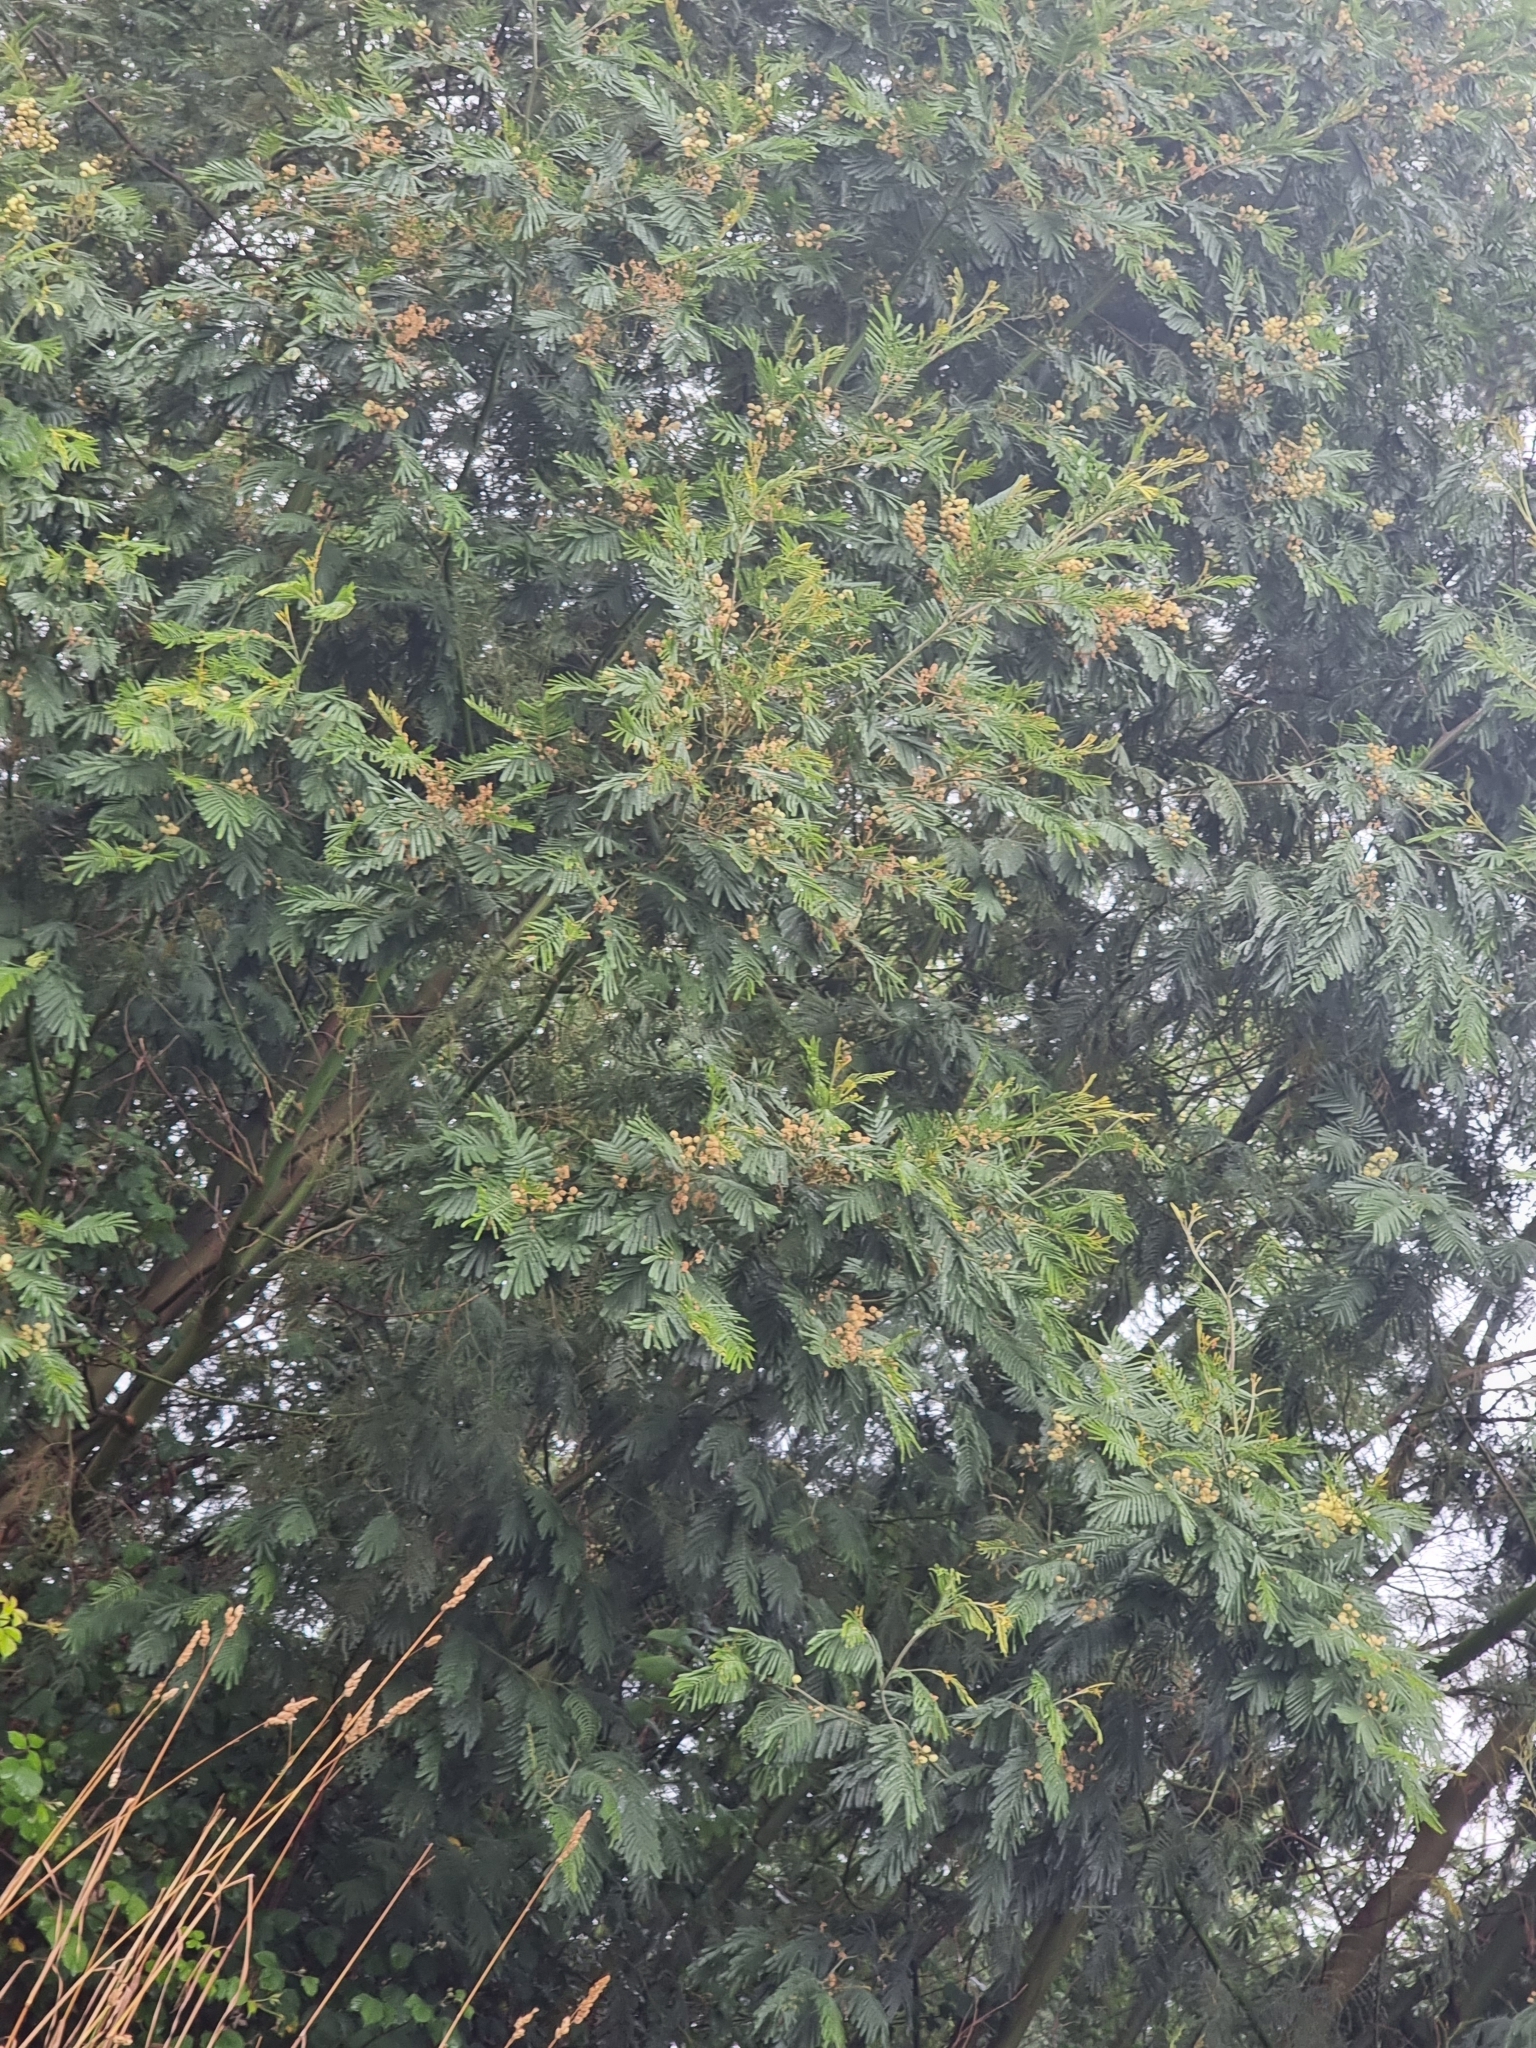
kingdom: Plantae
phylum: Tracheophyta
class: Magnoliopsida
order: Fabales
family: Fabaceae
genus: Acacia
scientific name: Acacia mearnsii
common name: Black wattle
